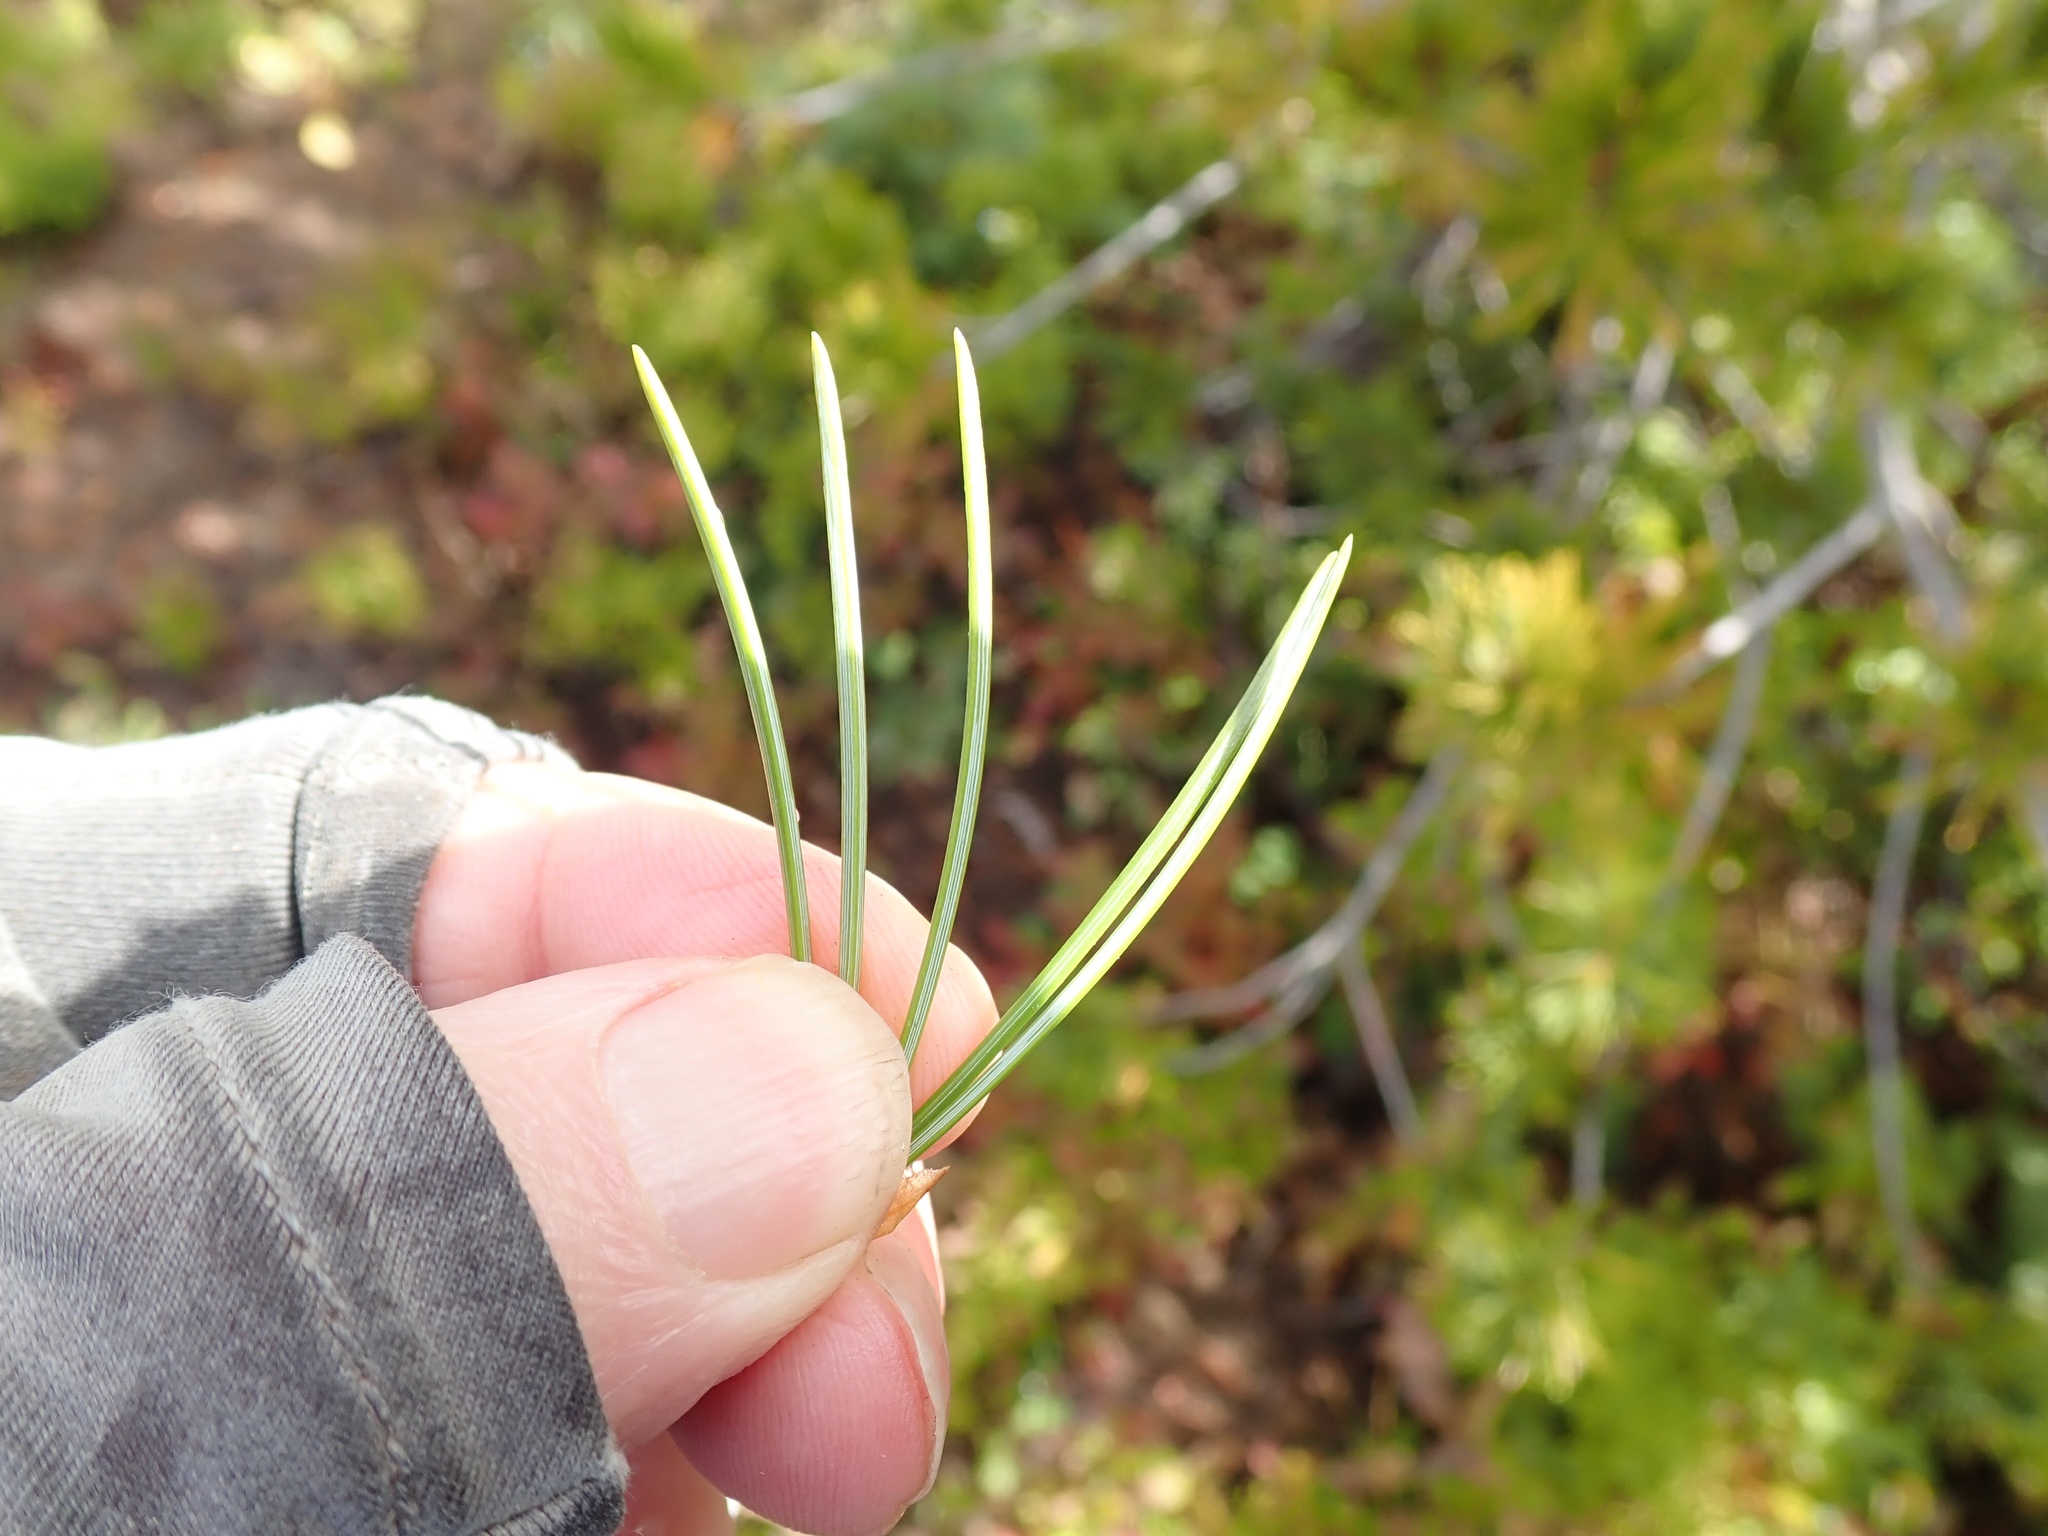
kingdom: Plantae
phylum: Tracheophyta
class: Pinopsida
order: Pinales
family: Pinaceae
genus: Pinus
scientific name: Pinus albicaulis
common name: Whitebark pine
